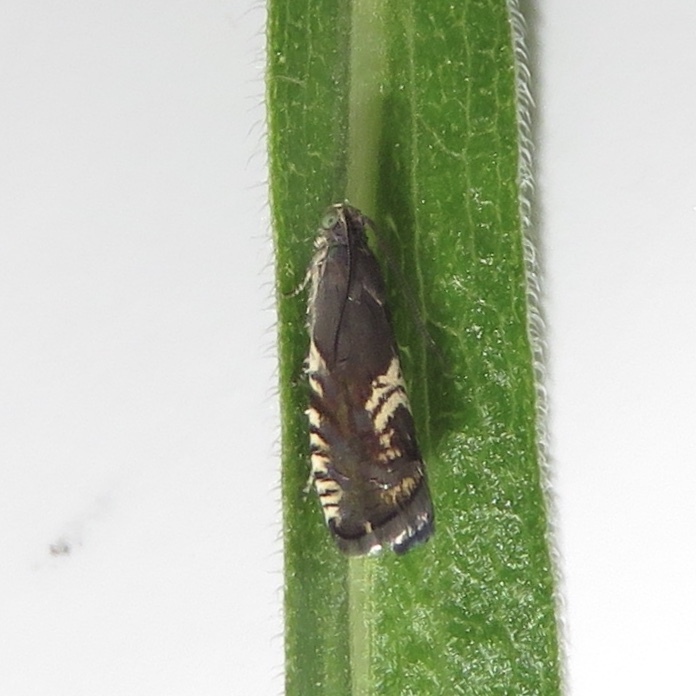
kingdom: Animalia
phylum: Arthropoda
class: Insecta
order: Lepidoptera
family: Tortricidae
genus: Grapholita
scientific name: Grapholita interstinctana
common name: Clover head caterpillar moth
